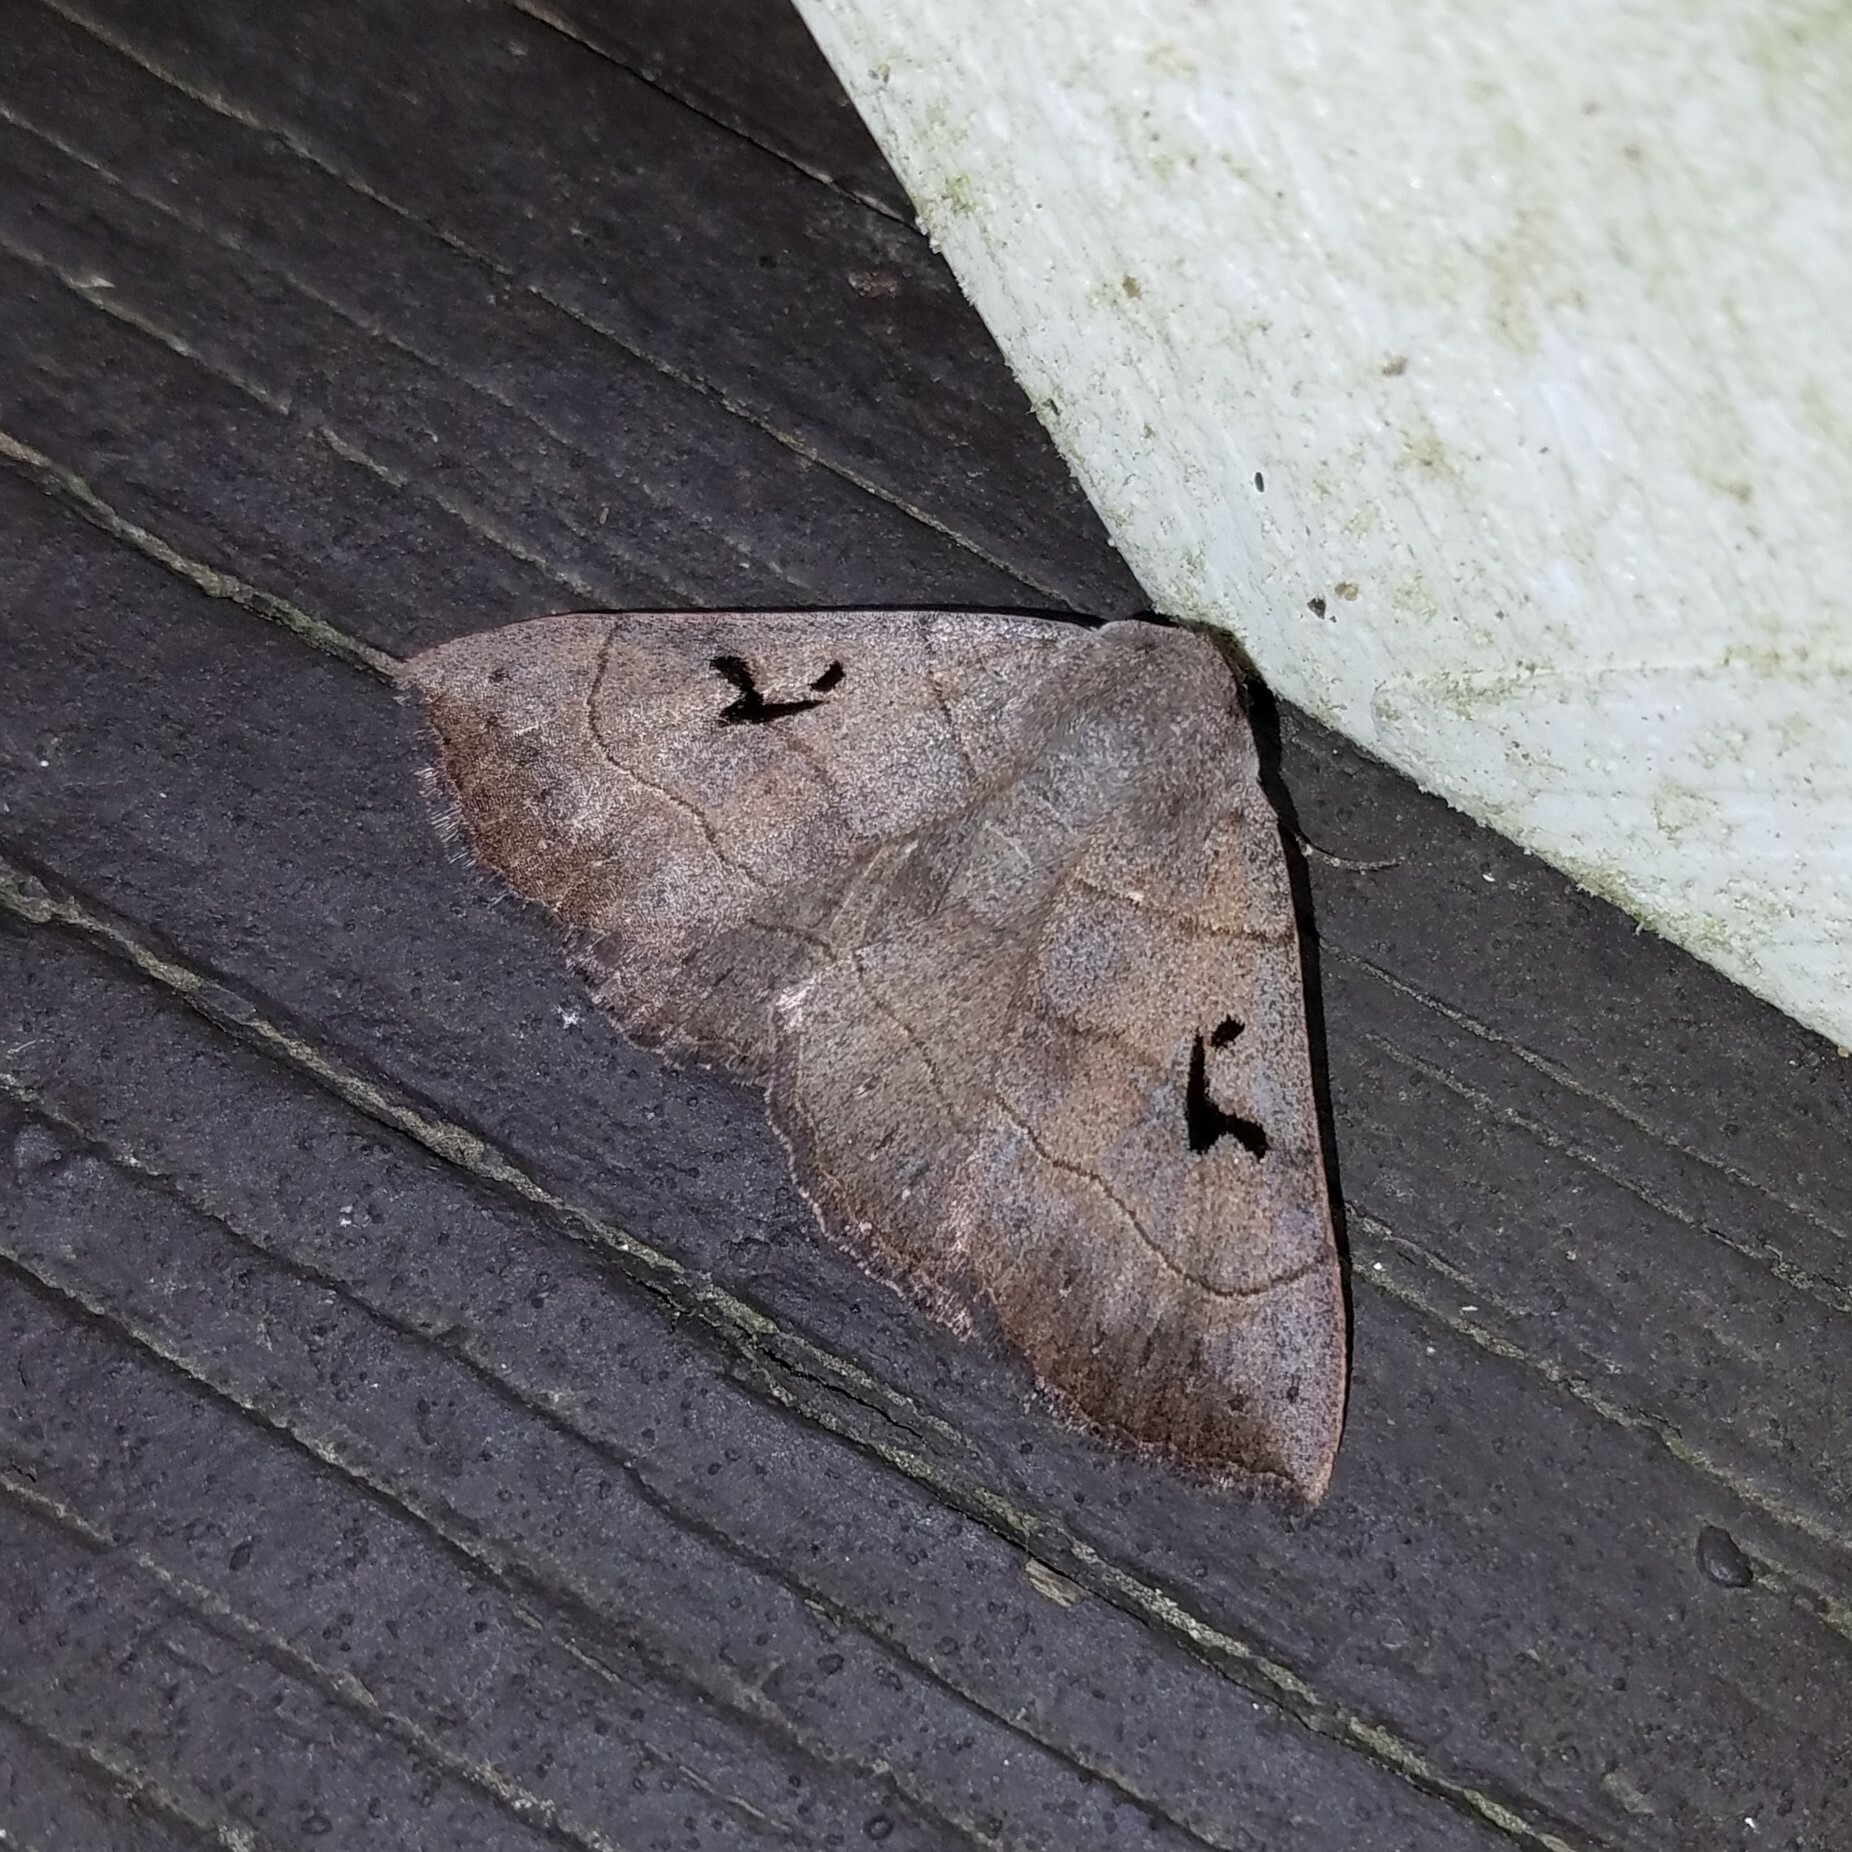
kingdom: Animalia
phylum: Arthropoda
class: Insecta
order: Lepidoptera
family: Erebidae
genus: Panopoda
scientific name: Panopoda carneicosta
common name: Brown panopoda moth
